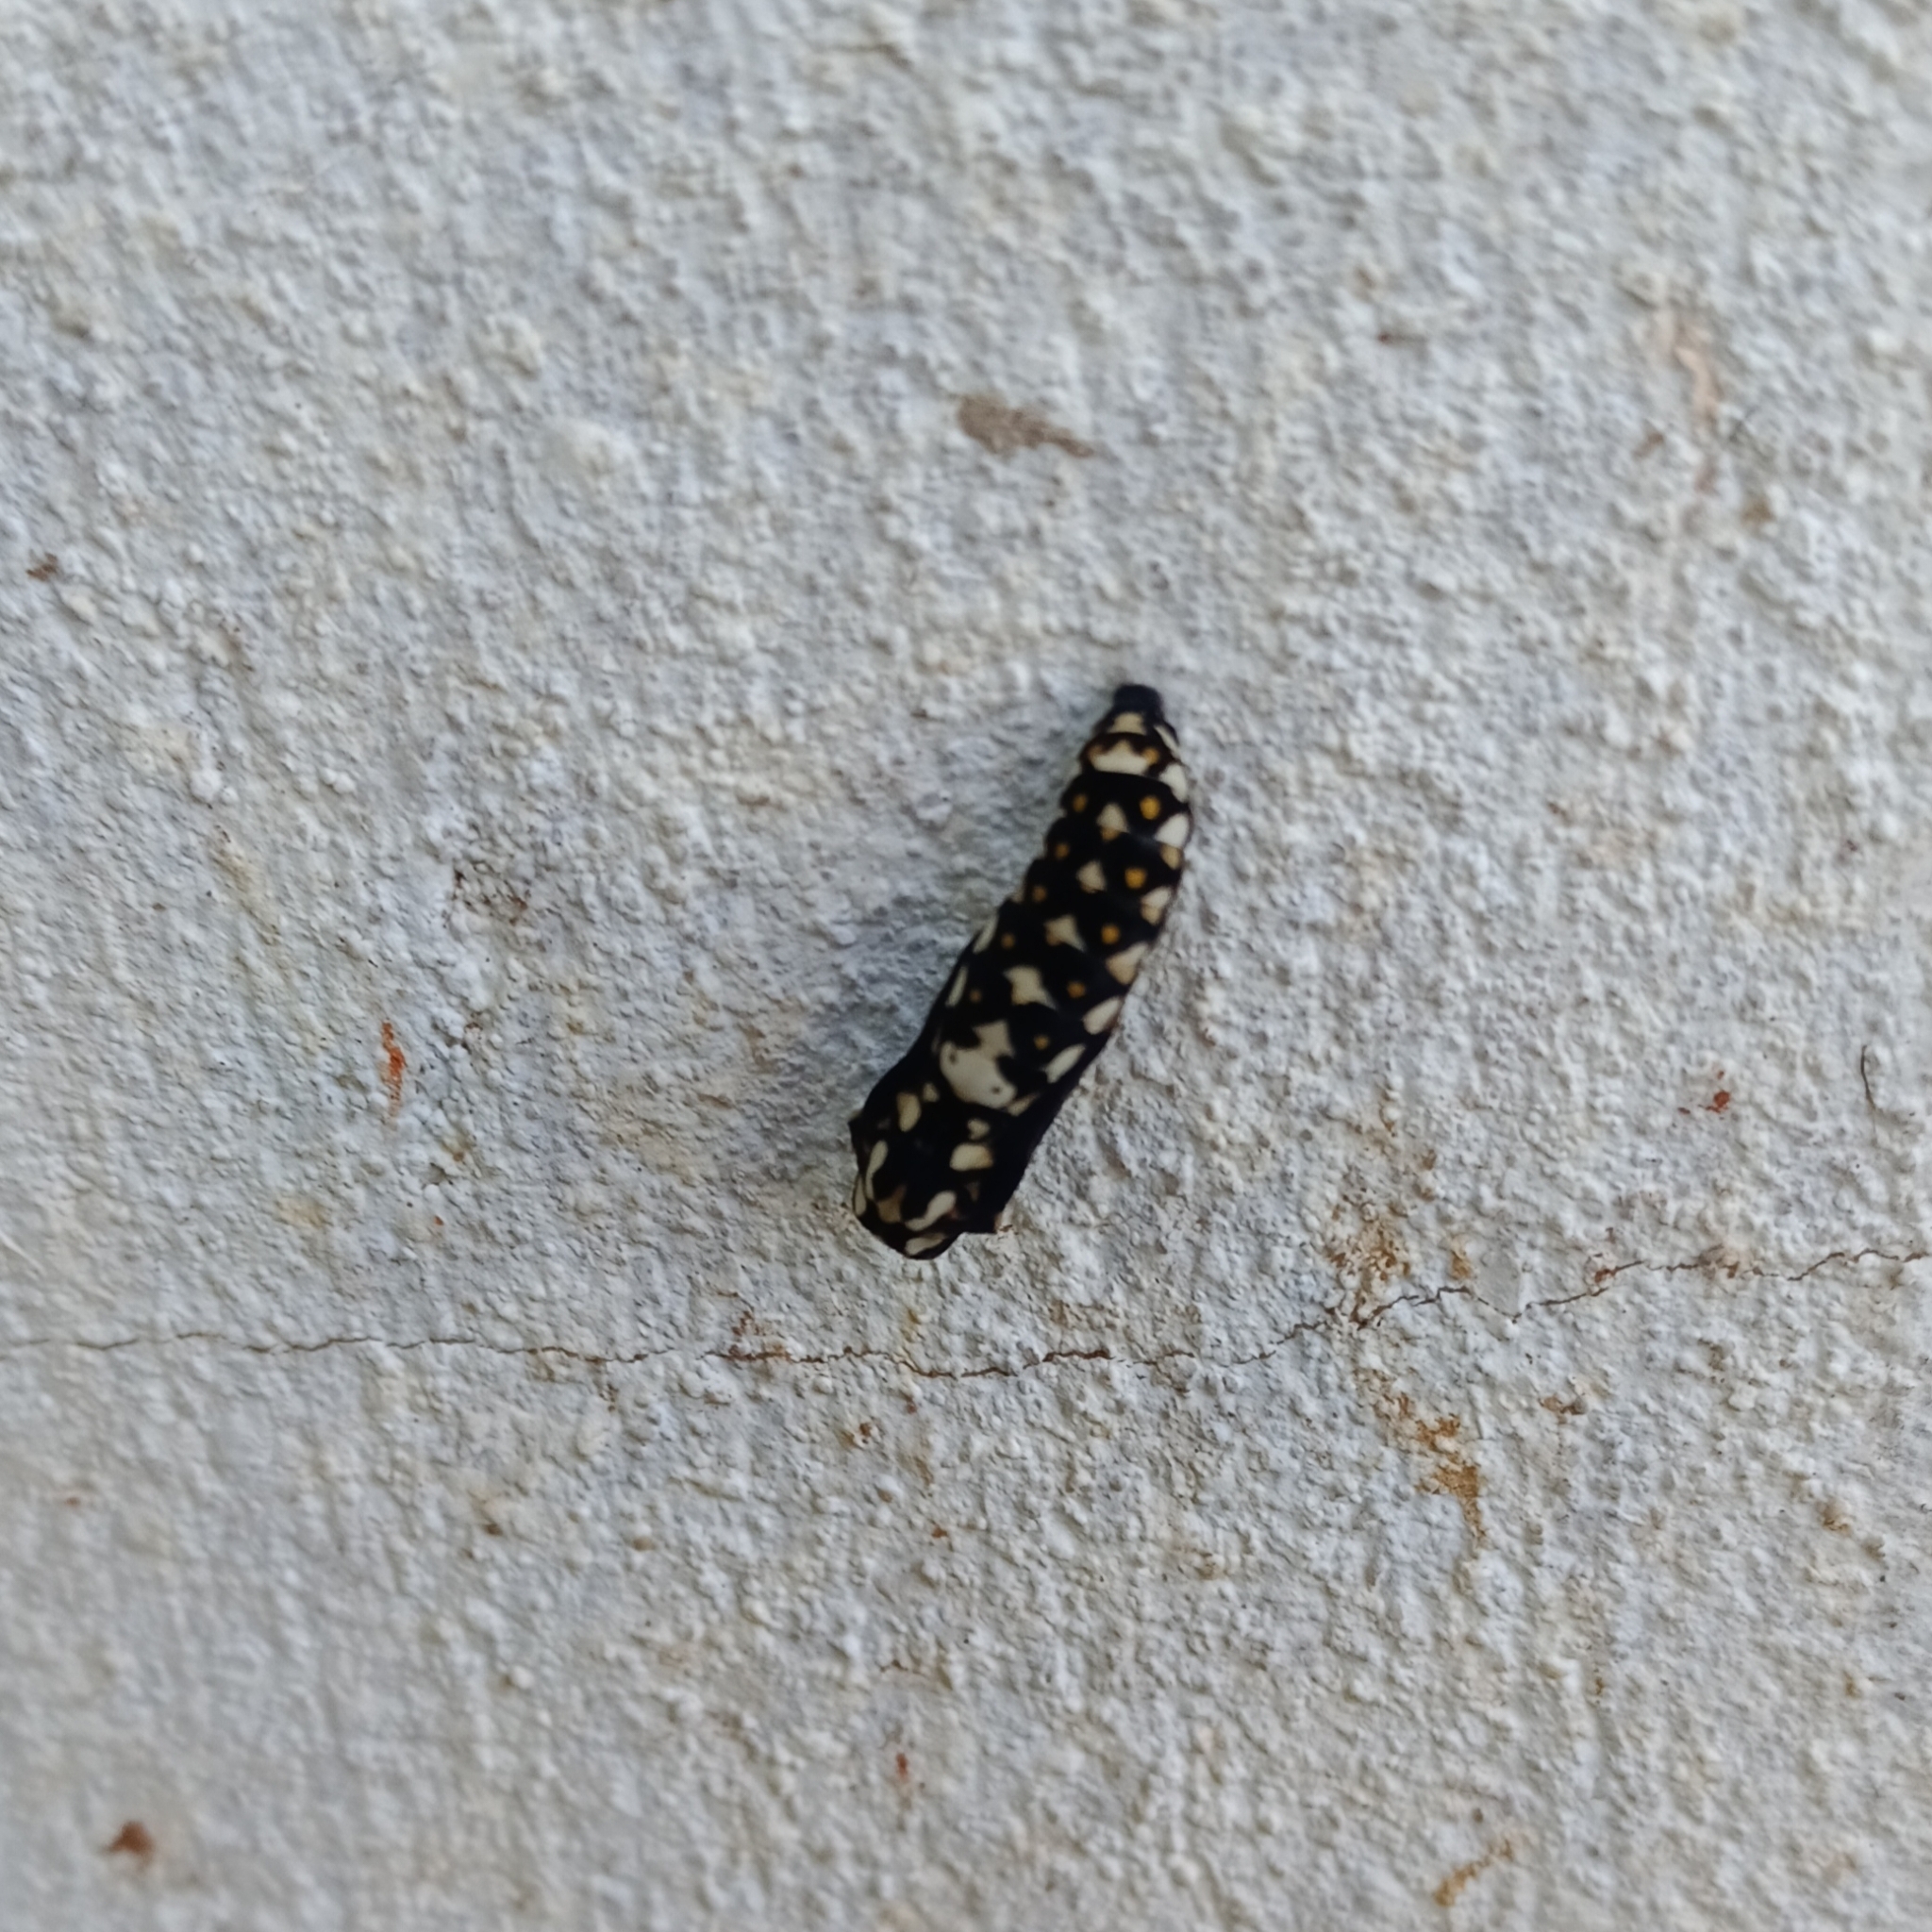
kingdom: Animalia
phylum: Arthropoda
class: Insecta
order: Lepidoptera
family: Nymphalidae
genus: Acraea
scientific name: Acraea horta
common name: Garden acraea
